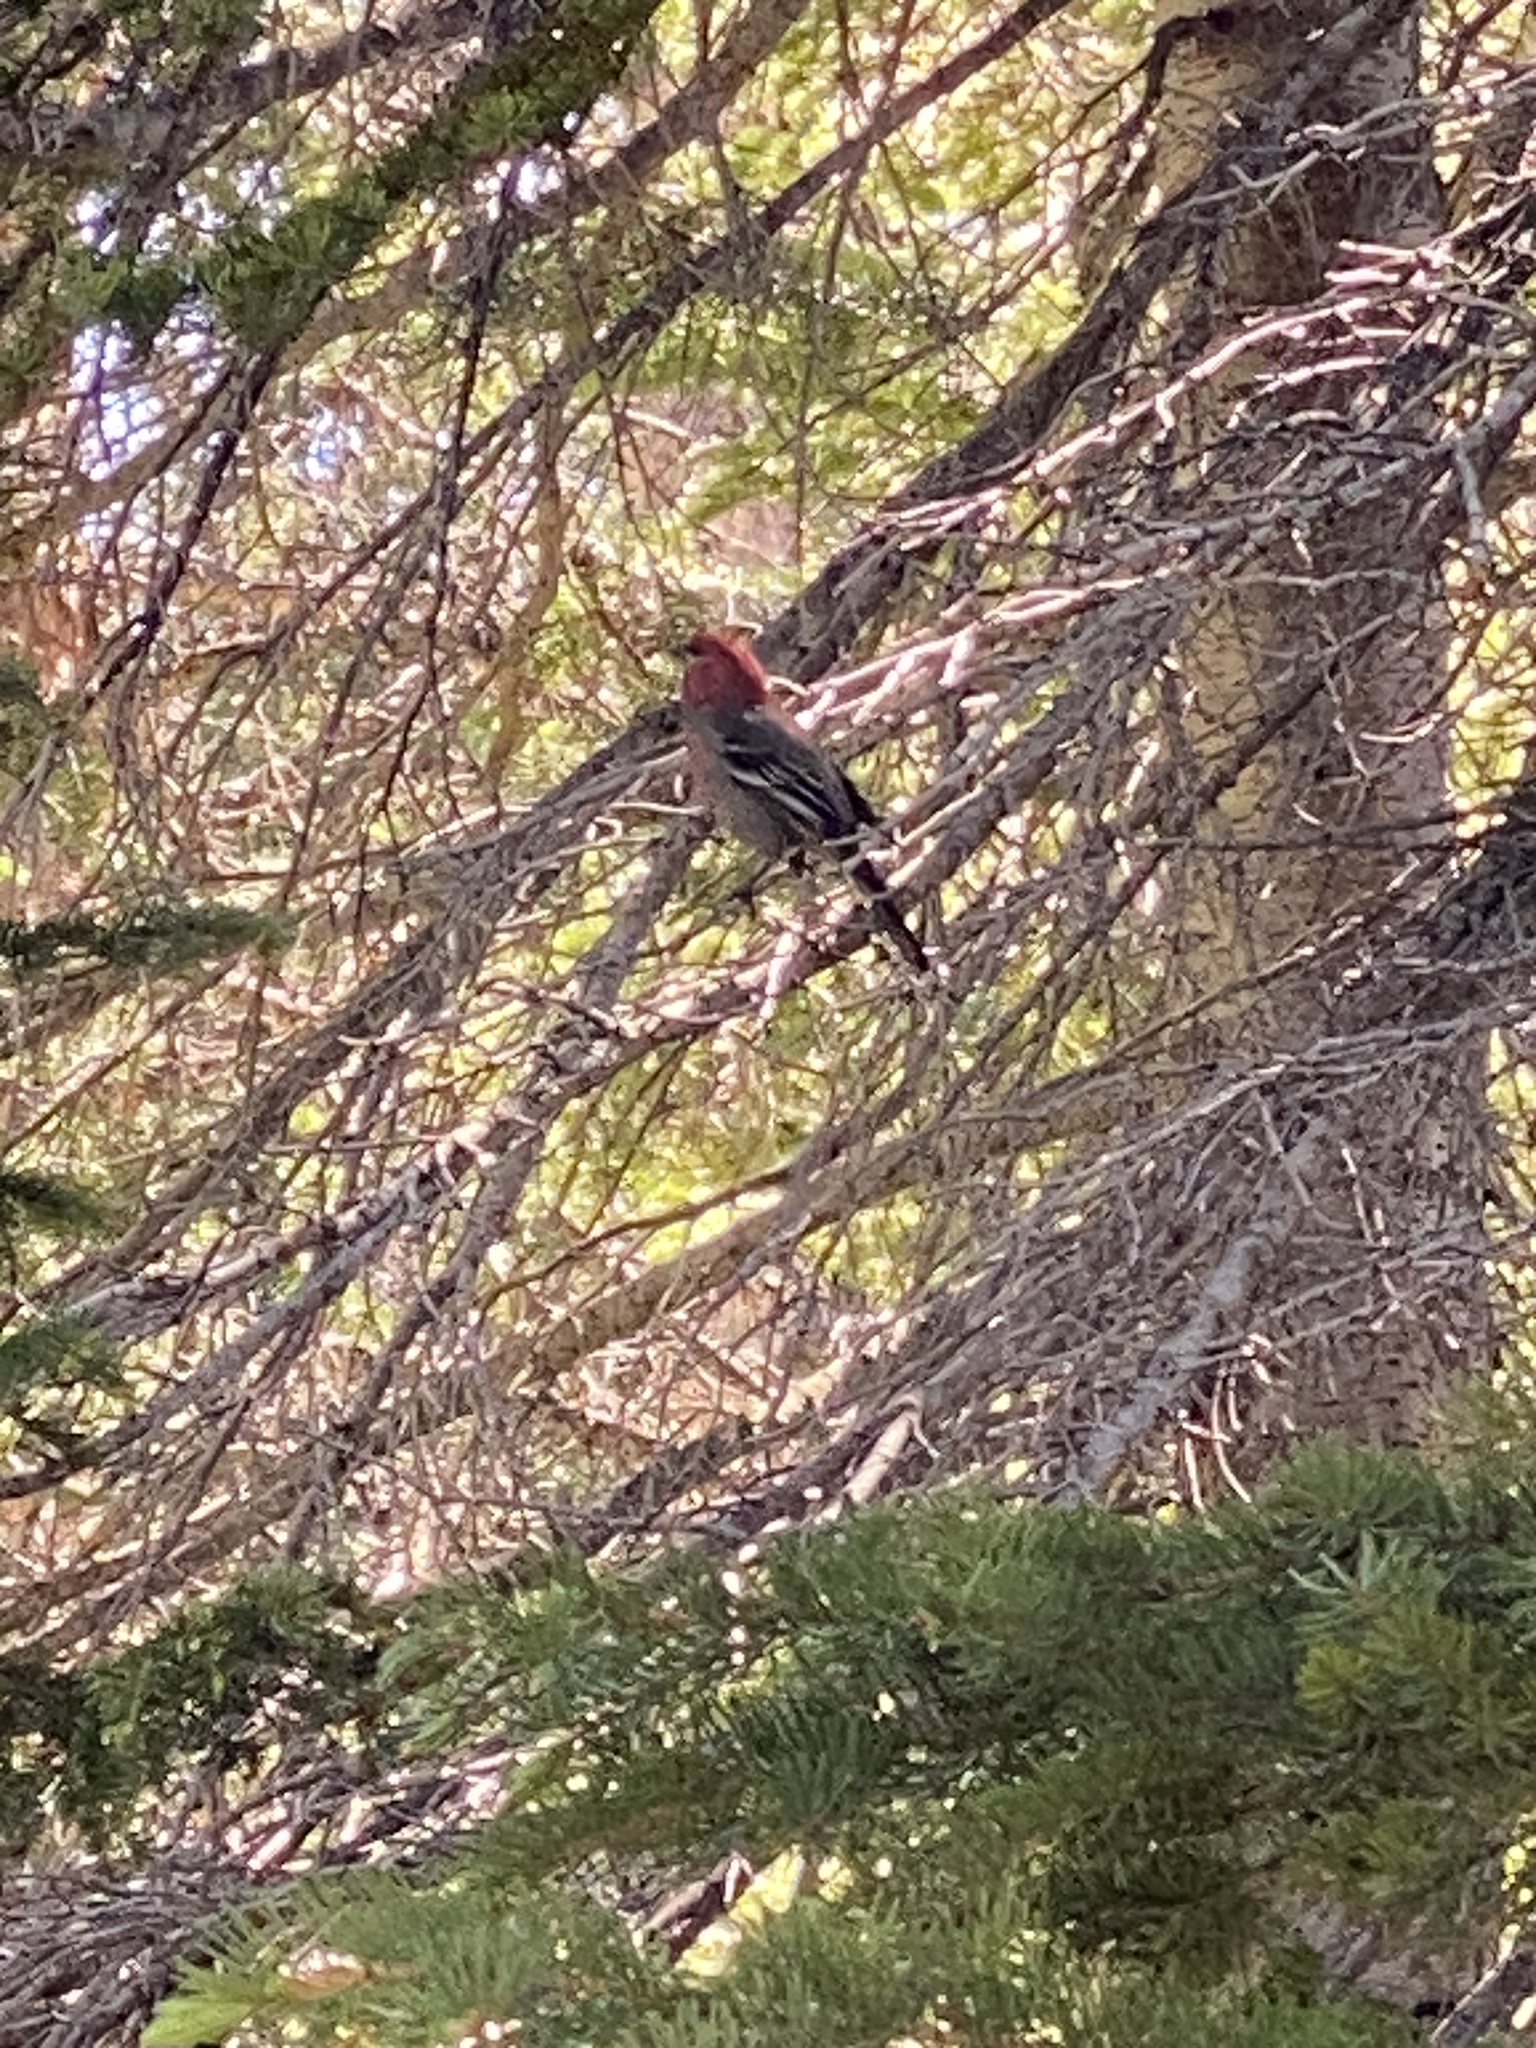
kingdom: Animalia
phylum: Chordata
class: Aves
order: Passeriformes
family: Fringillidae
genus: Pinicola
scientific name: Pinicola enucleator
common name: Pine grosbeak
